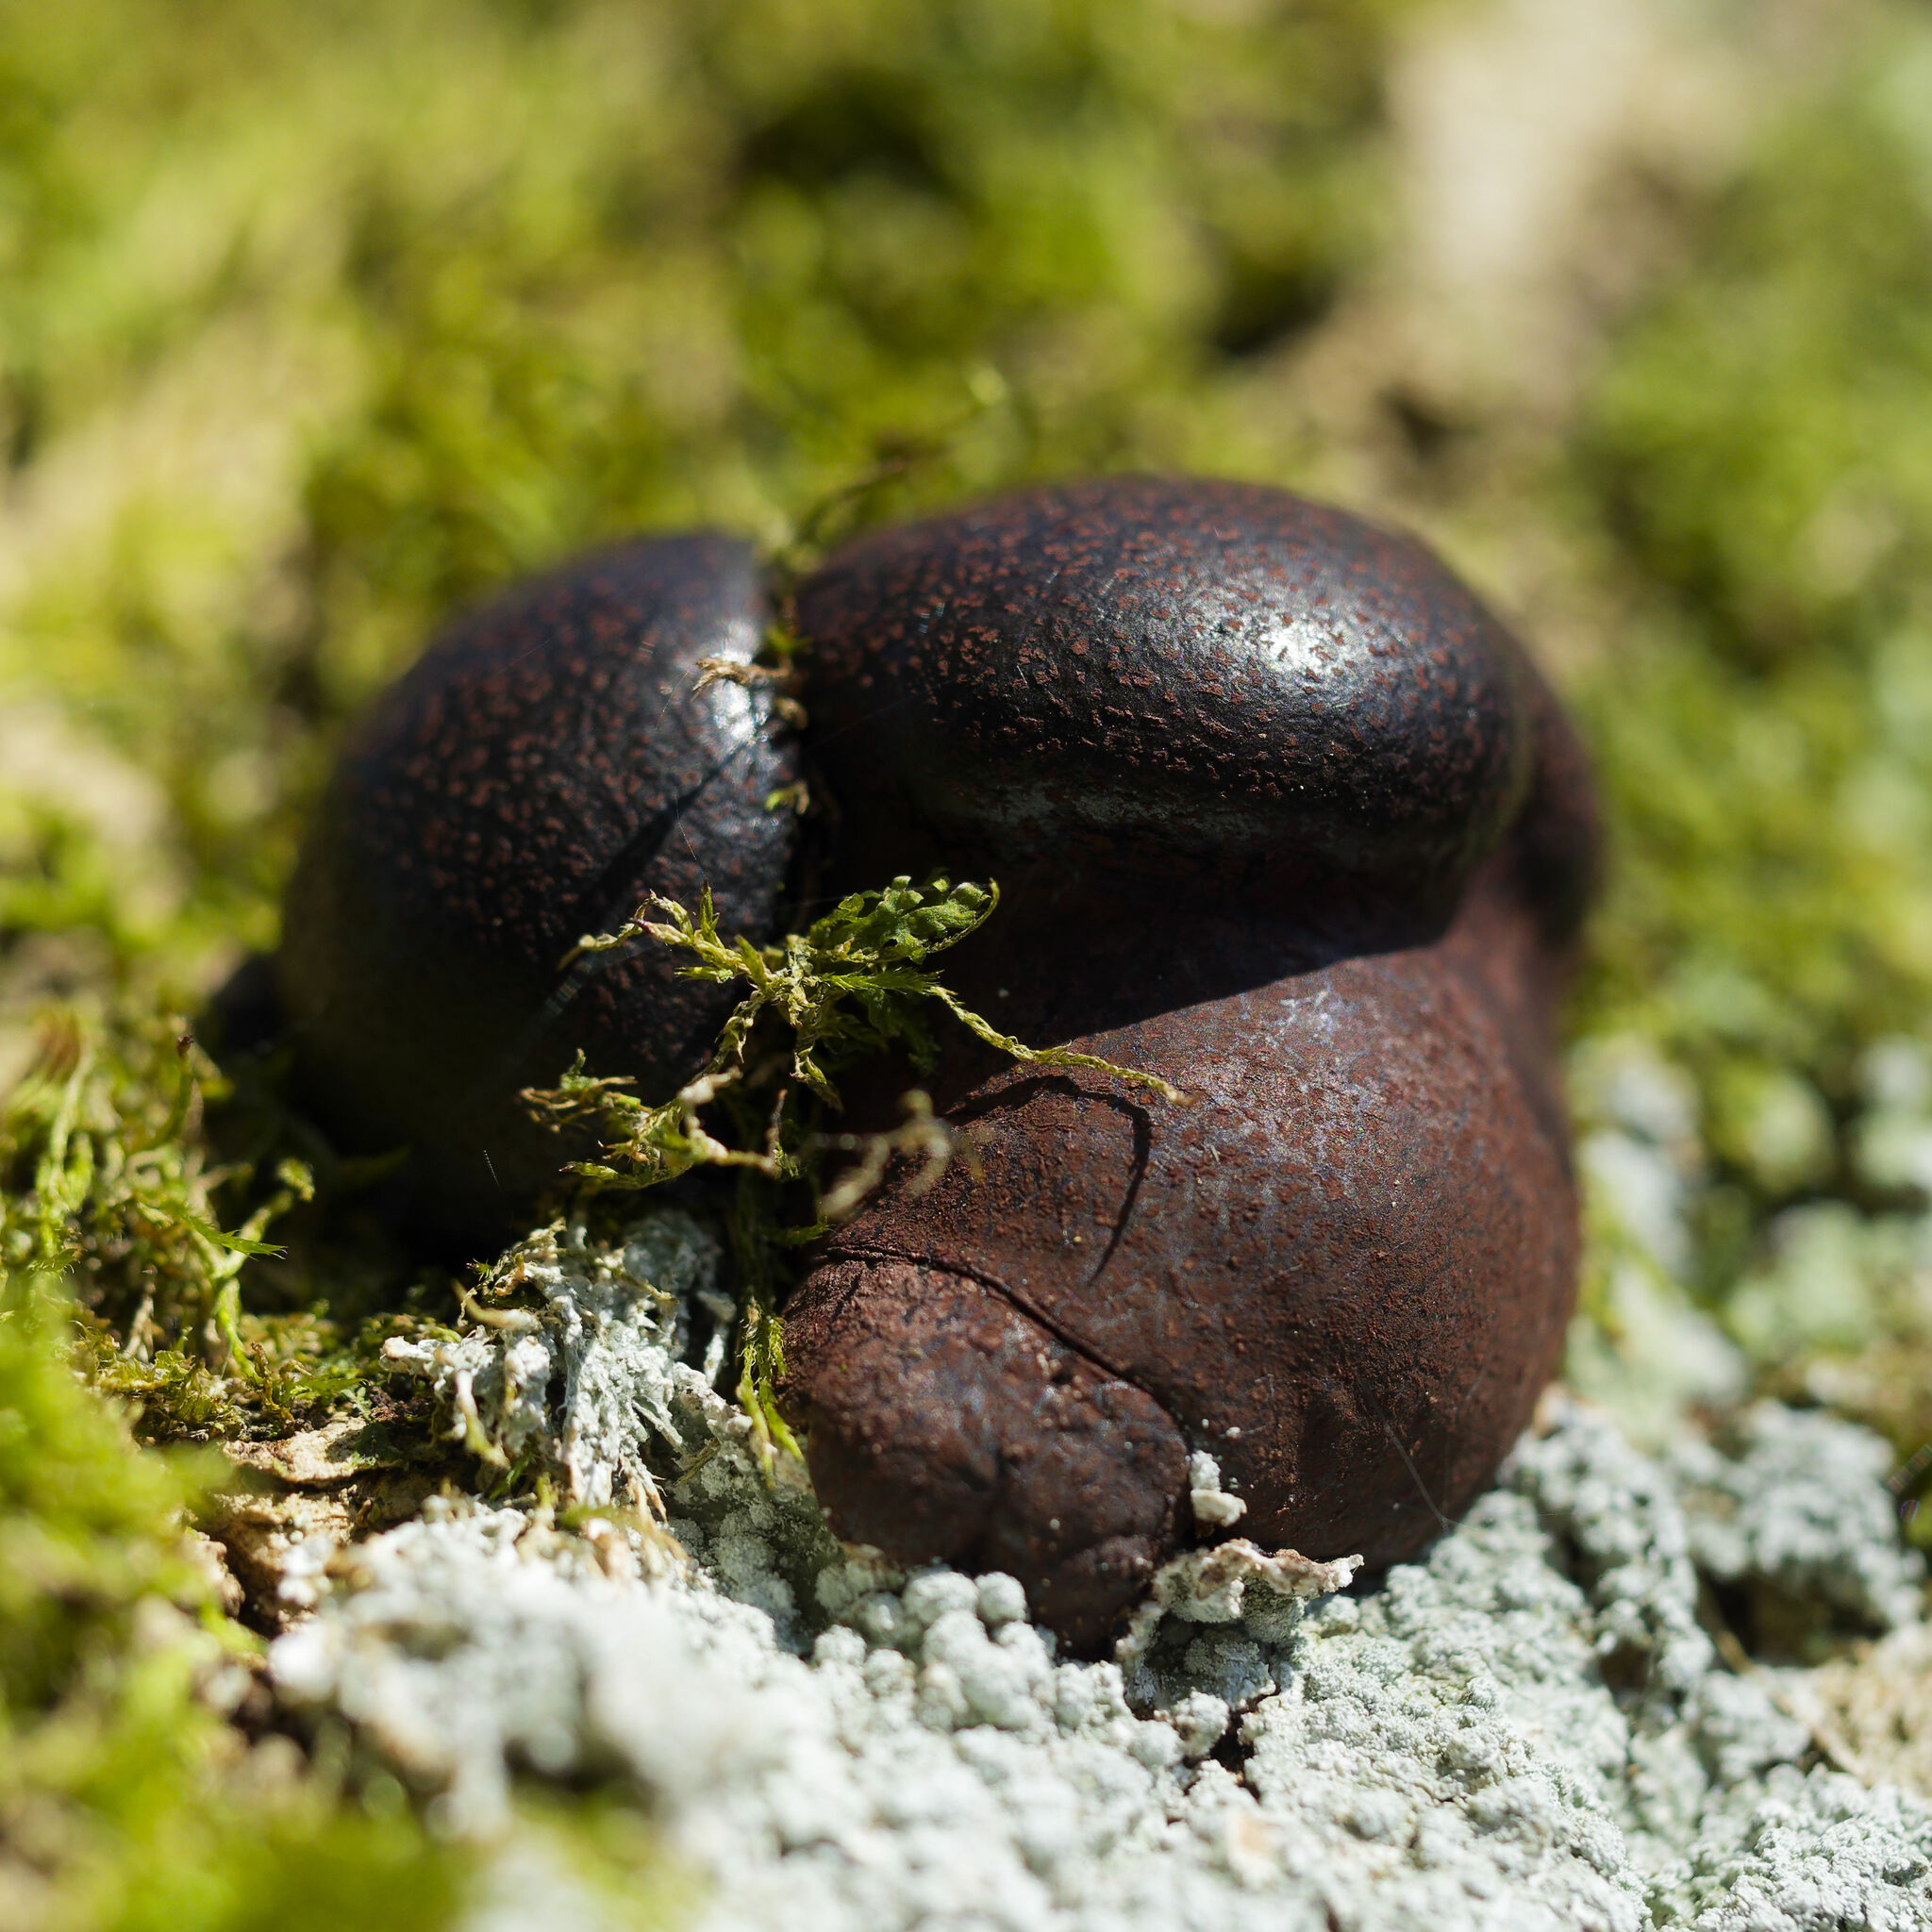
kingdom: Fungi
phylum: Ascomycota
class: Sordariomycetes
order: Xylariales
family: Hypoxylaceae
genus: Daldinia
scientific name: Daldinia concentrica
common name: Cramp balls
